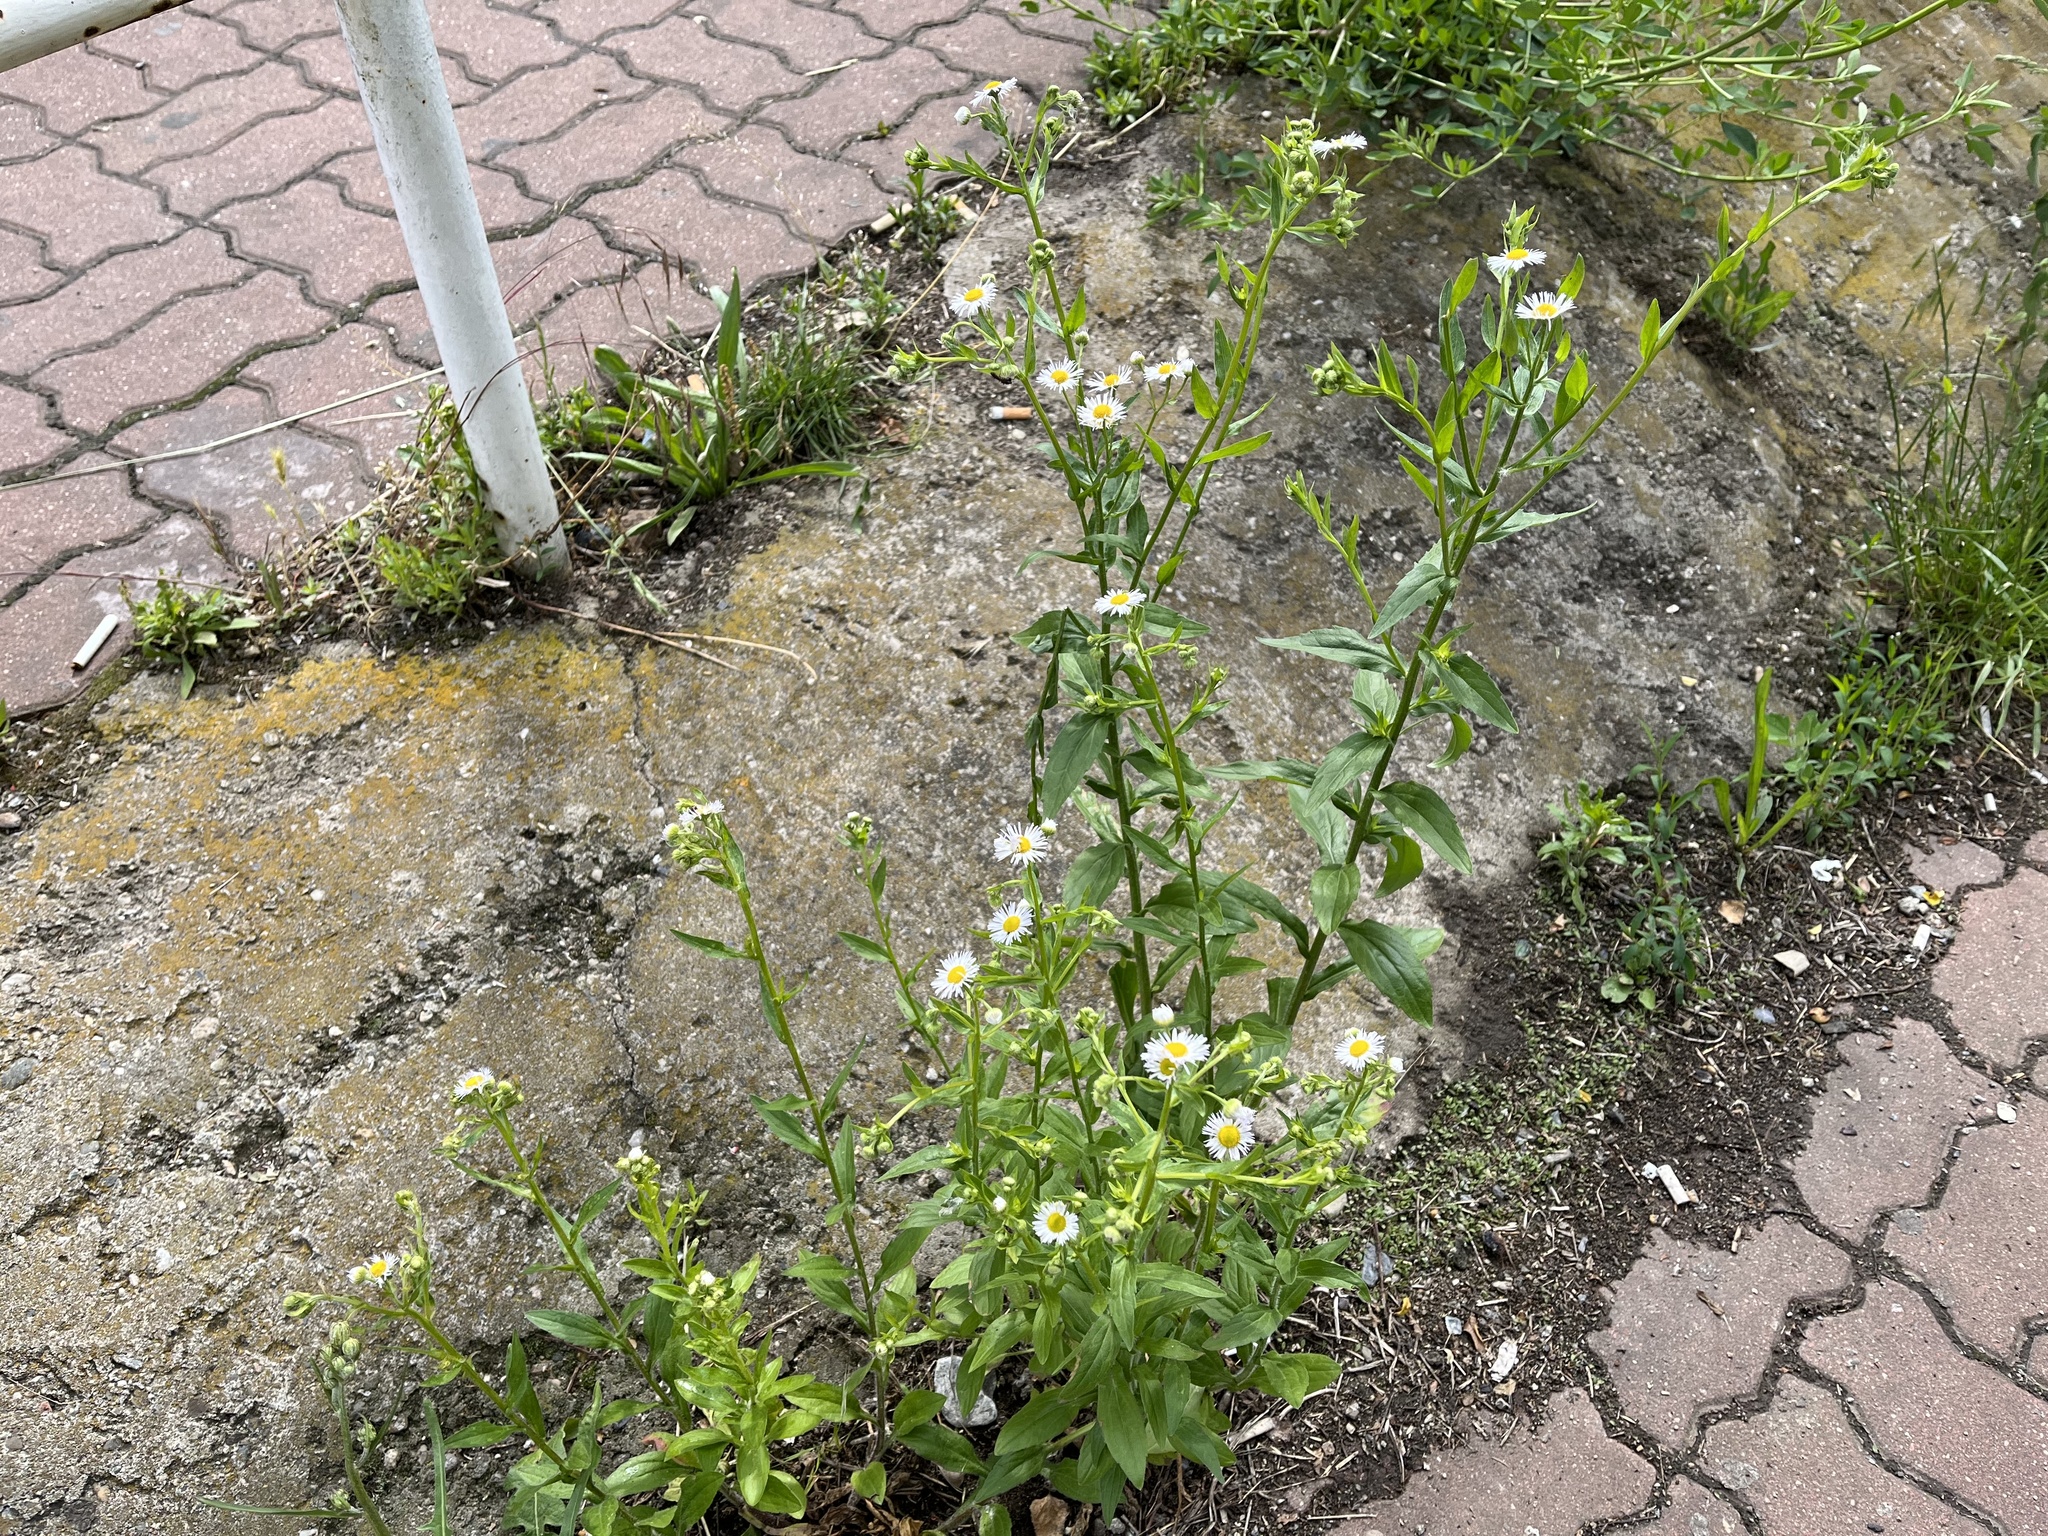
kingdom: Plantae
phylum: Tracheophyta
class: Magnoliopsida
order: Asterales
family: Asteraceae
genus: Erigeron
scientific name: Erigeron annuus
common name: Tall fleabane
